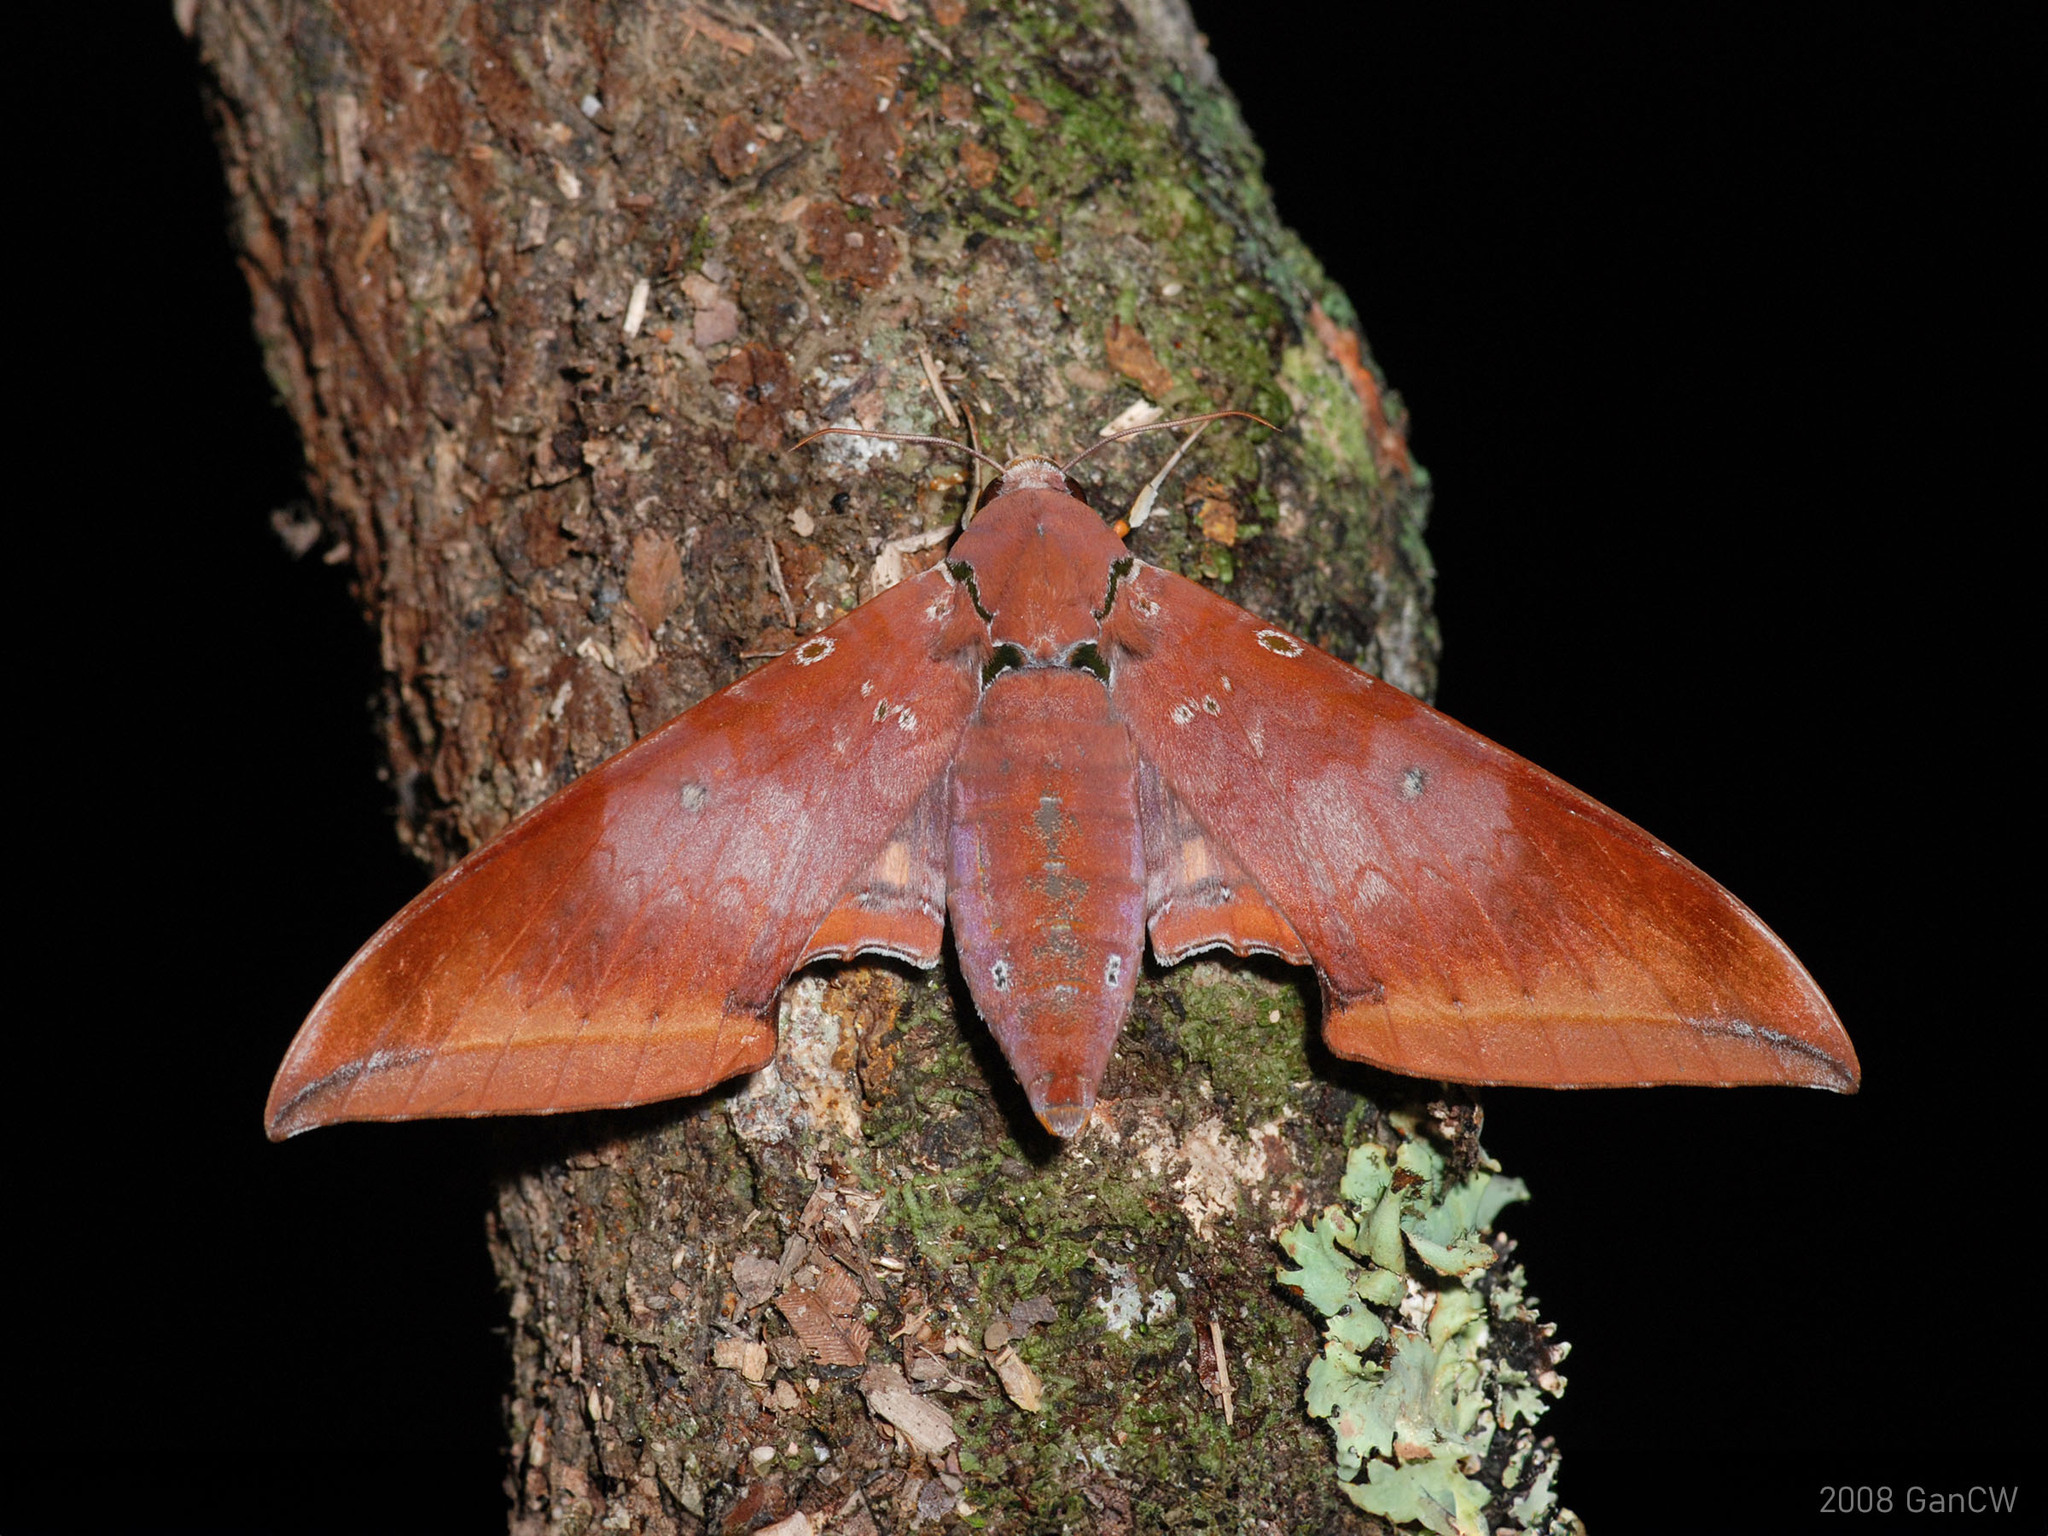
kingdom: Animalia
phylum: Arthropoda
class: Insecta
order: Lepidoptera
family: Sphingidae
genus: Ambulyx
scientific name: Ambulyx moorei
